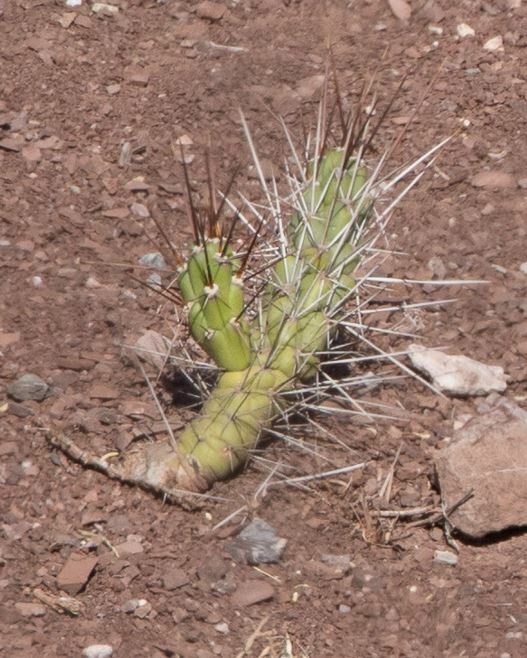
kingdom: Plantae
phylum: Tracheophyta
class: Magnoliopsida
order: Caryophyllales
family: Cactaceae
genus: Austrocylindropuntia
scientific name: Austrocylindropuntia subulata
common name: Eve's needle cactus
